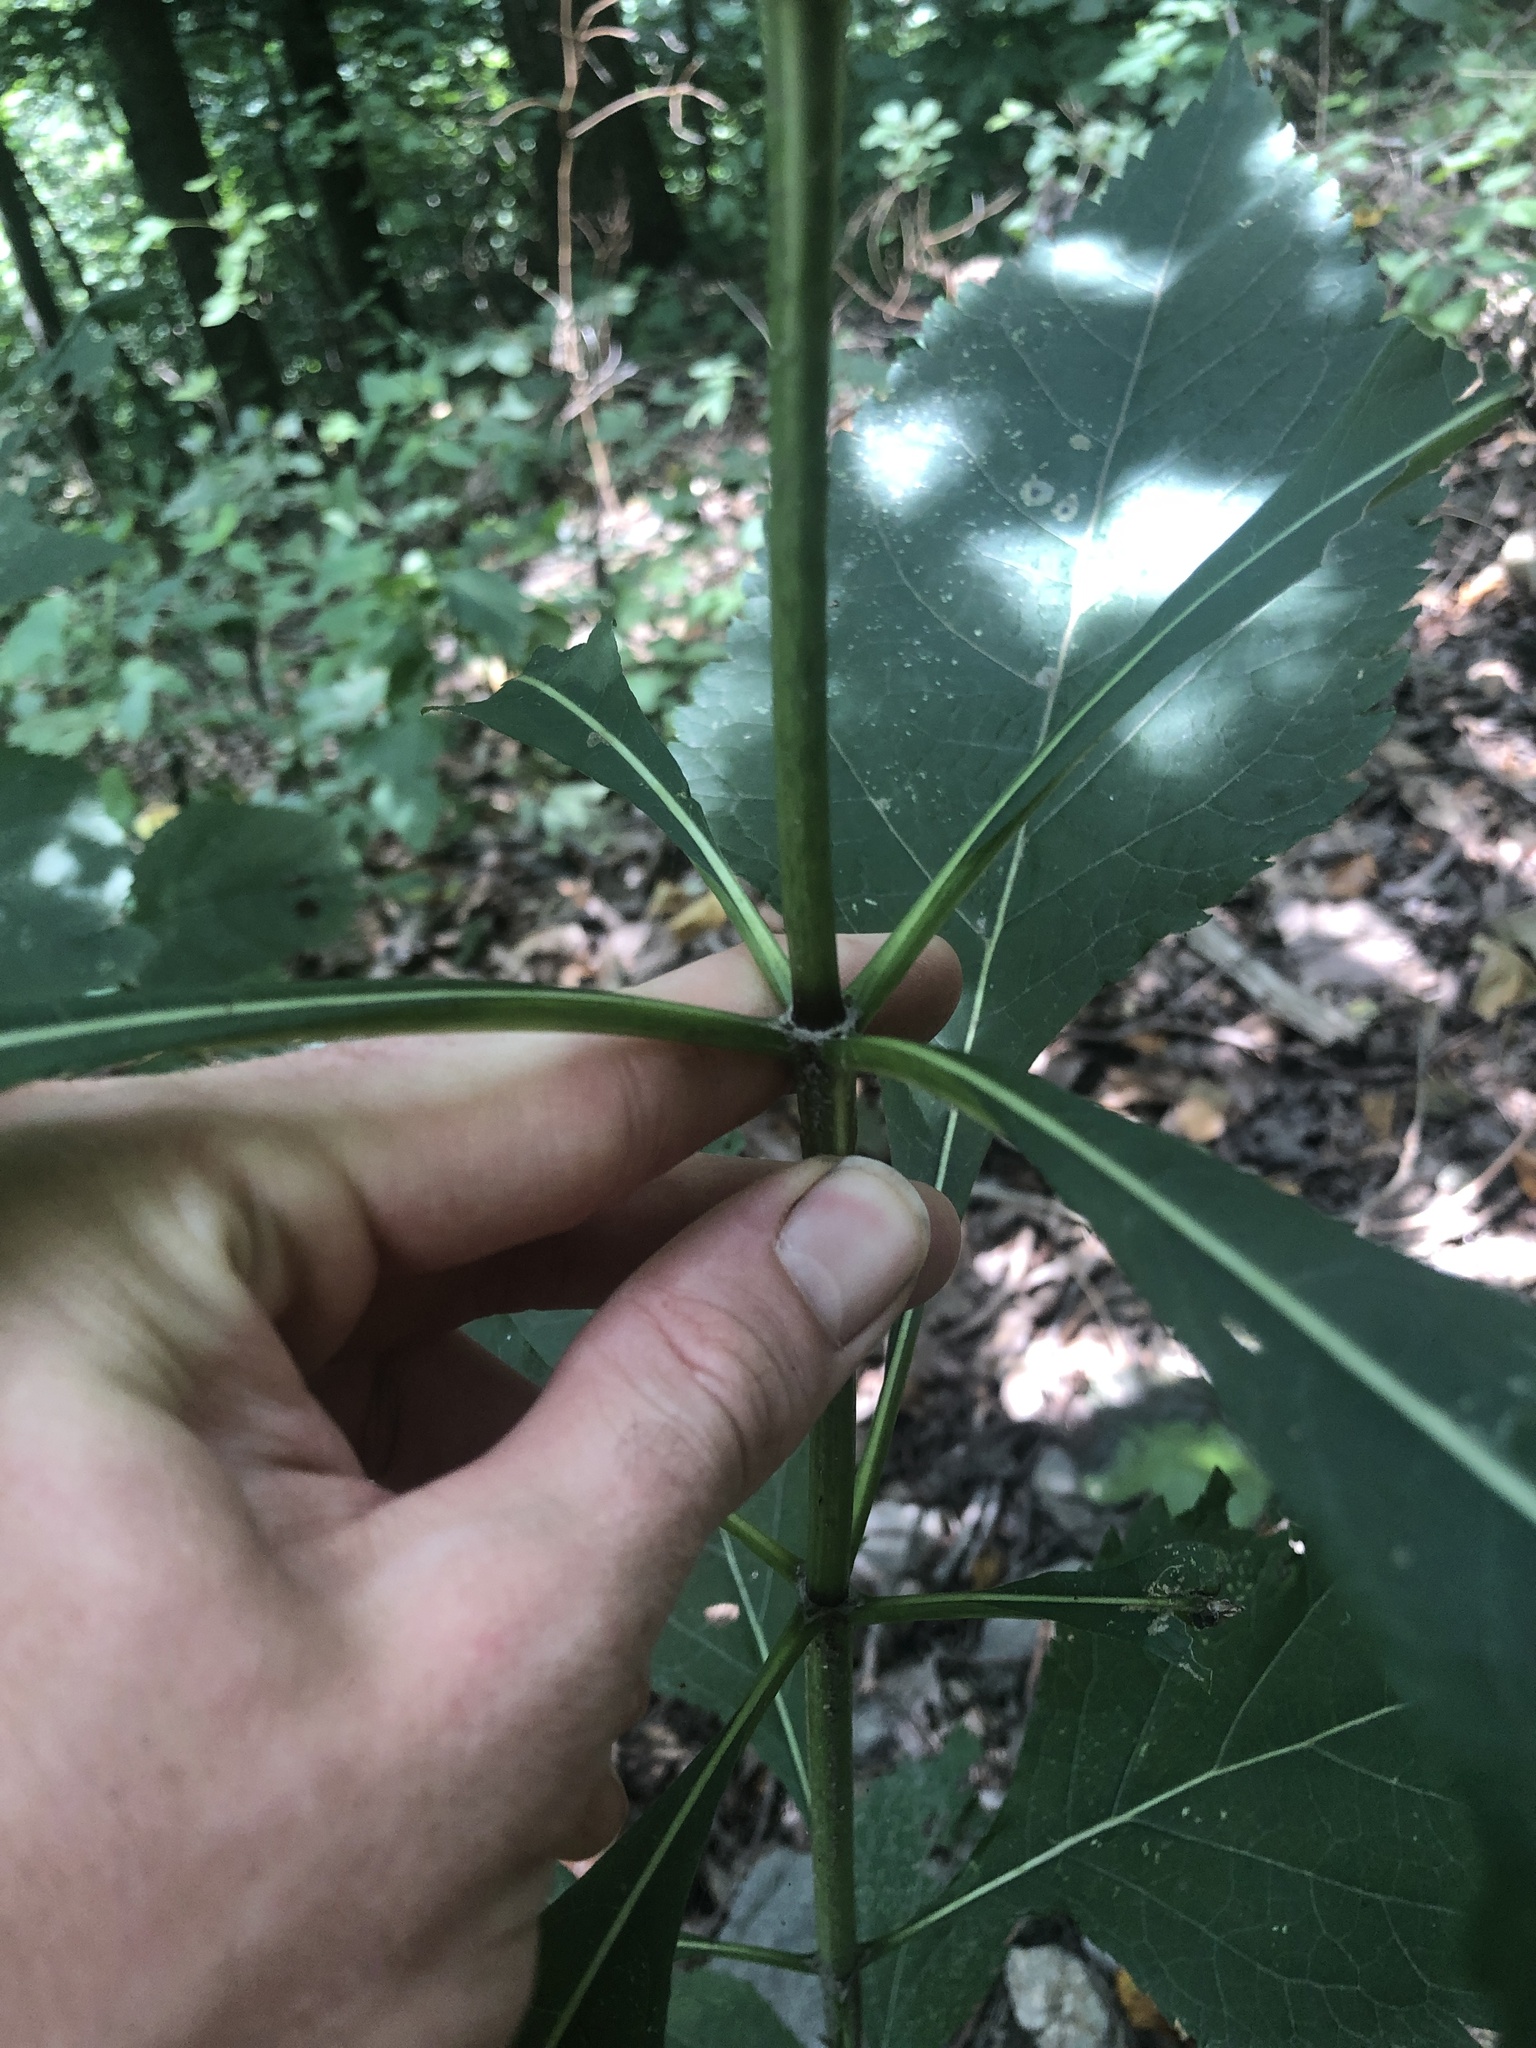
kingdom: Plantae
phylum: Tracheophyta
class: Magnoliopsida
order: Asterales
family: Asteraceae
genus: Eutrochium
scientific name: Eutrochium purpureum
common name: Gravelroot
